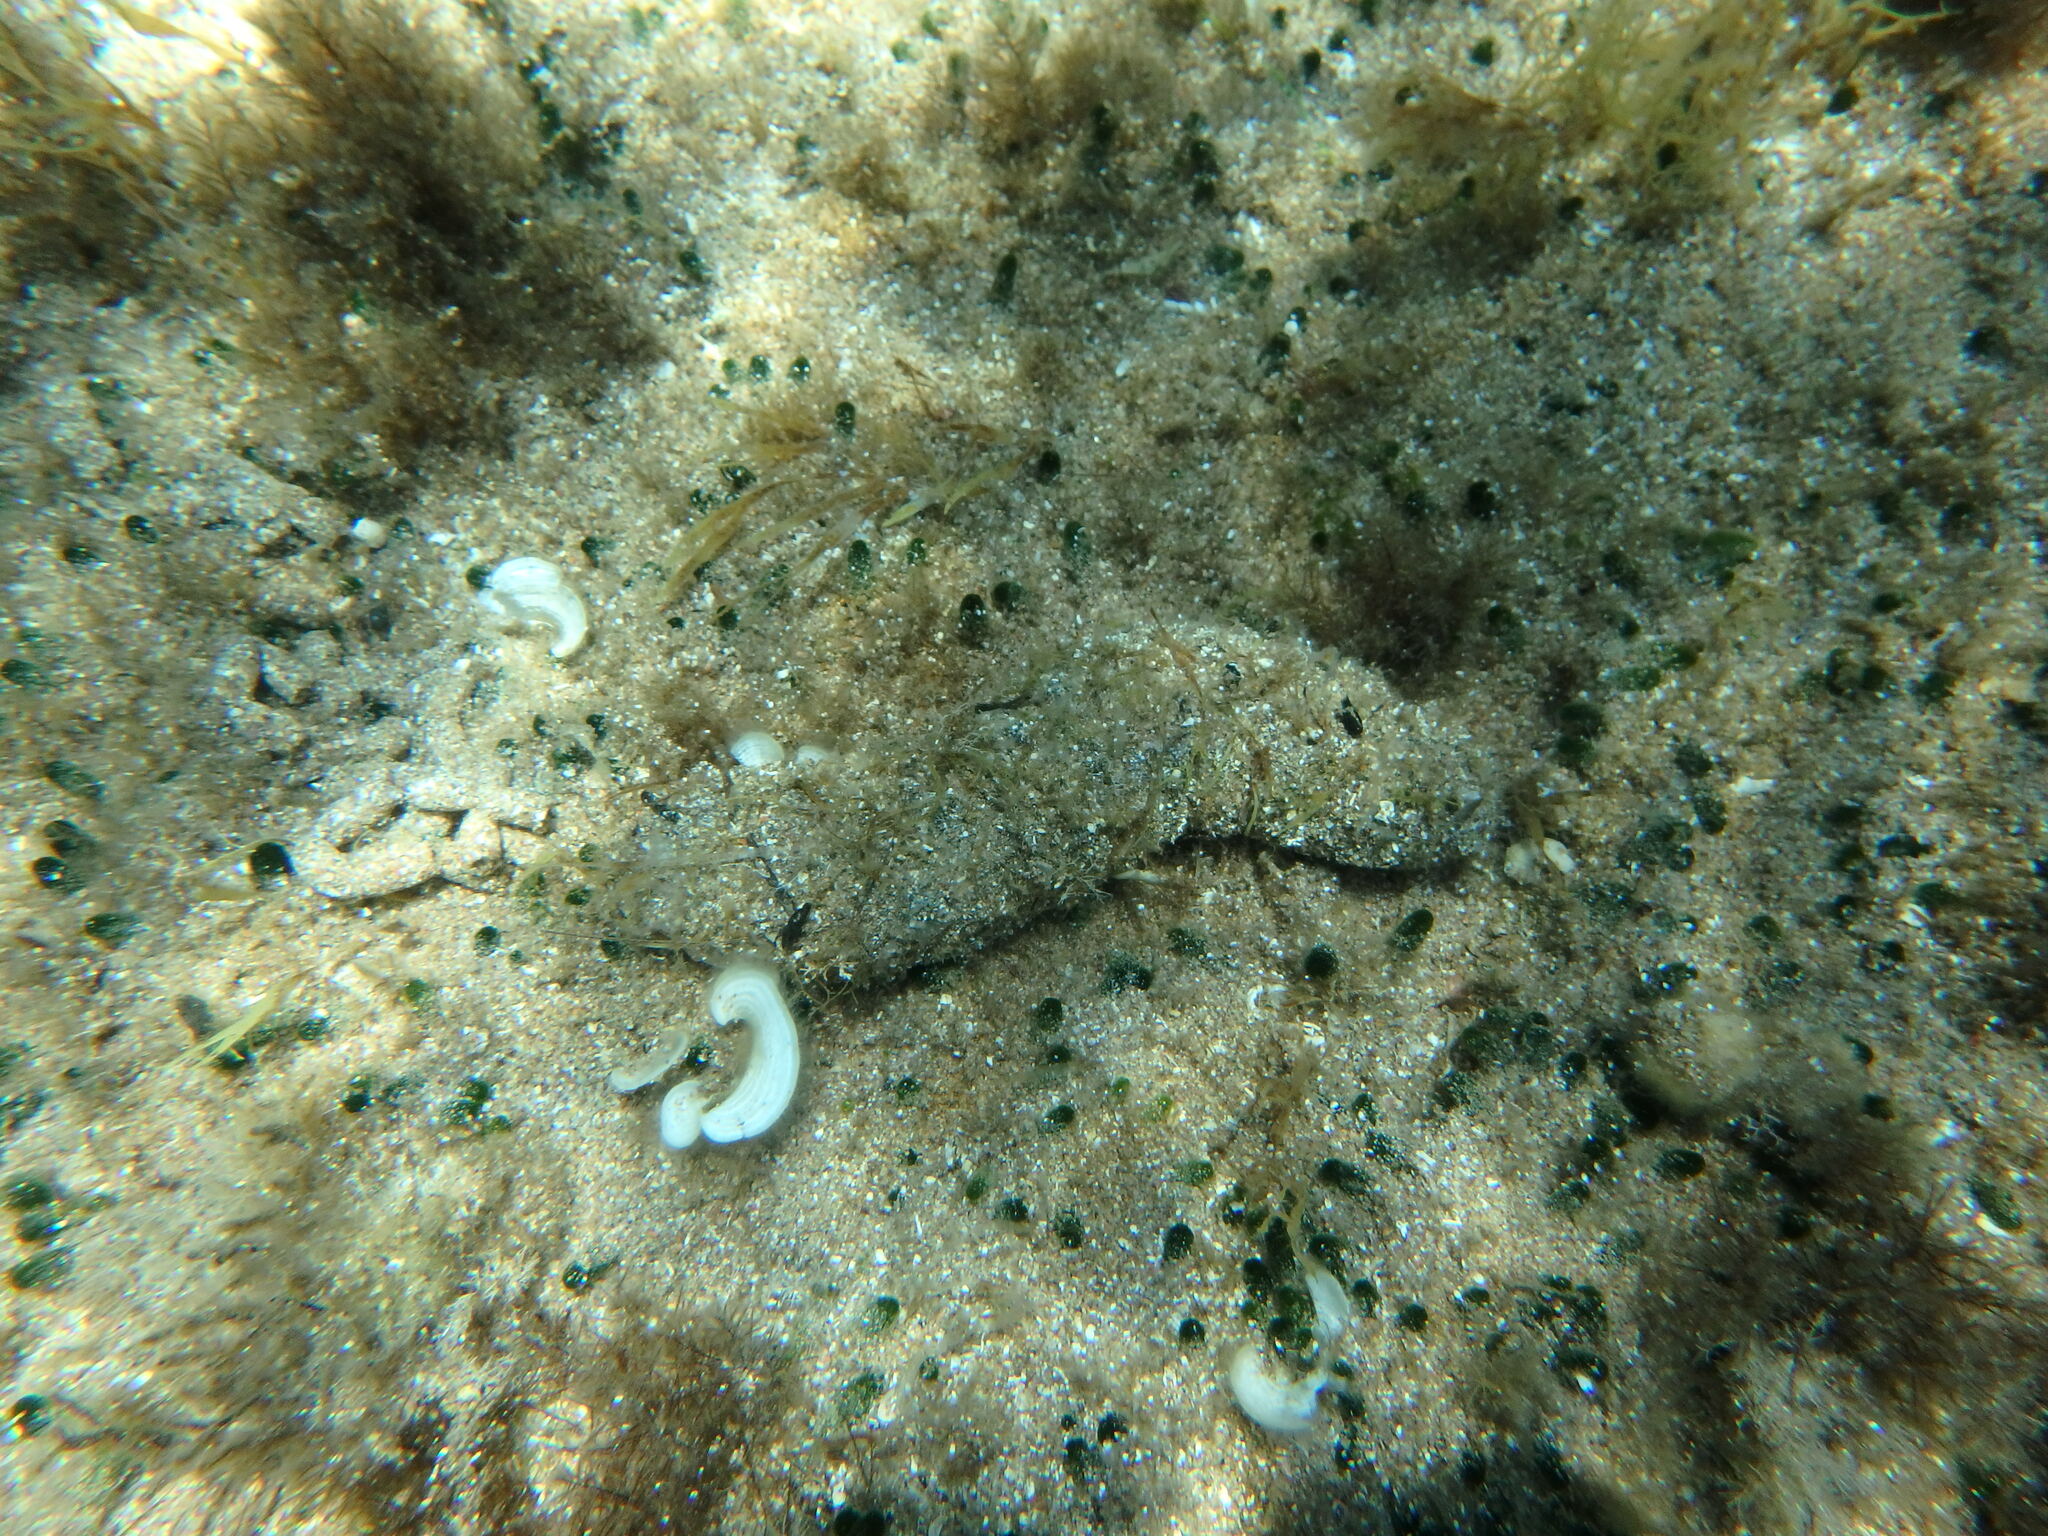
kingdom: Animalia
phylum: Echinodermata
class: Holothuroidea
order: Holothuriida
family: Holothuriidae
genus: Holothuria
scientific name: Holothuria poli
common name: White spot cucumber
